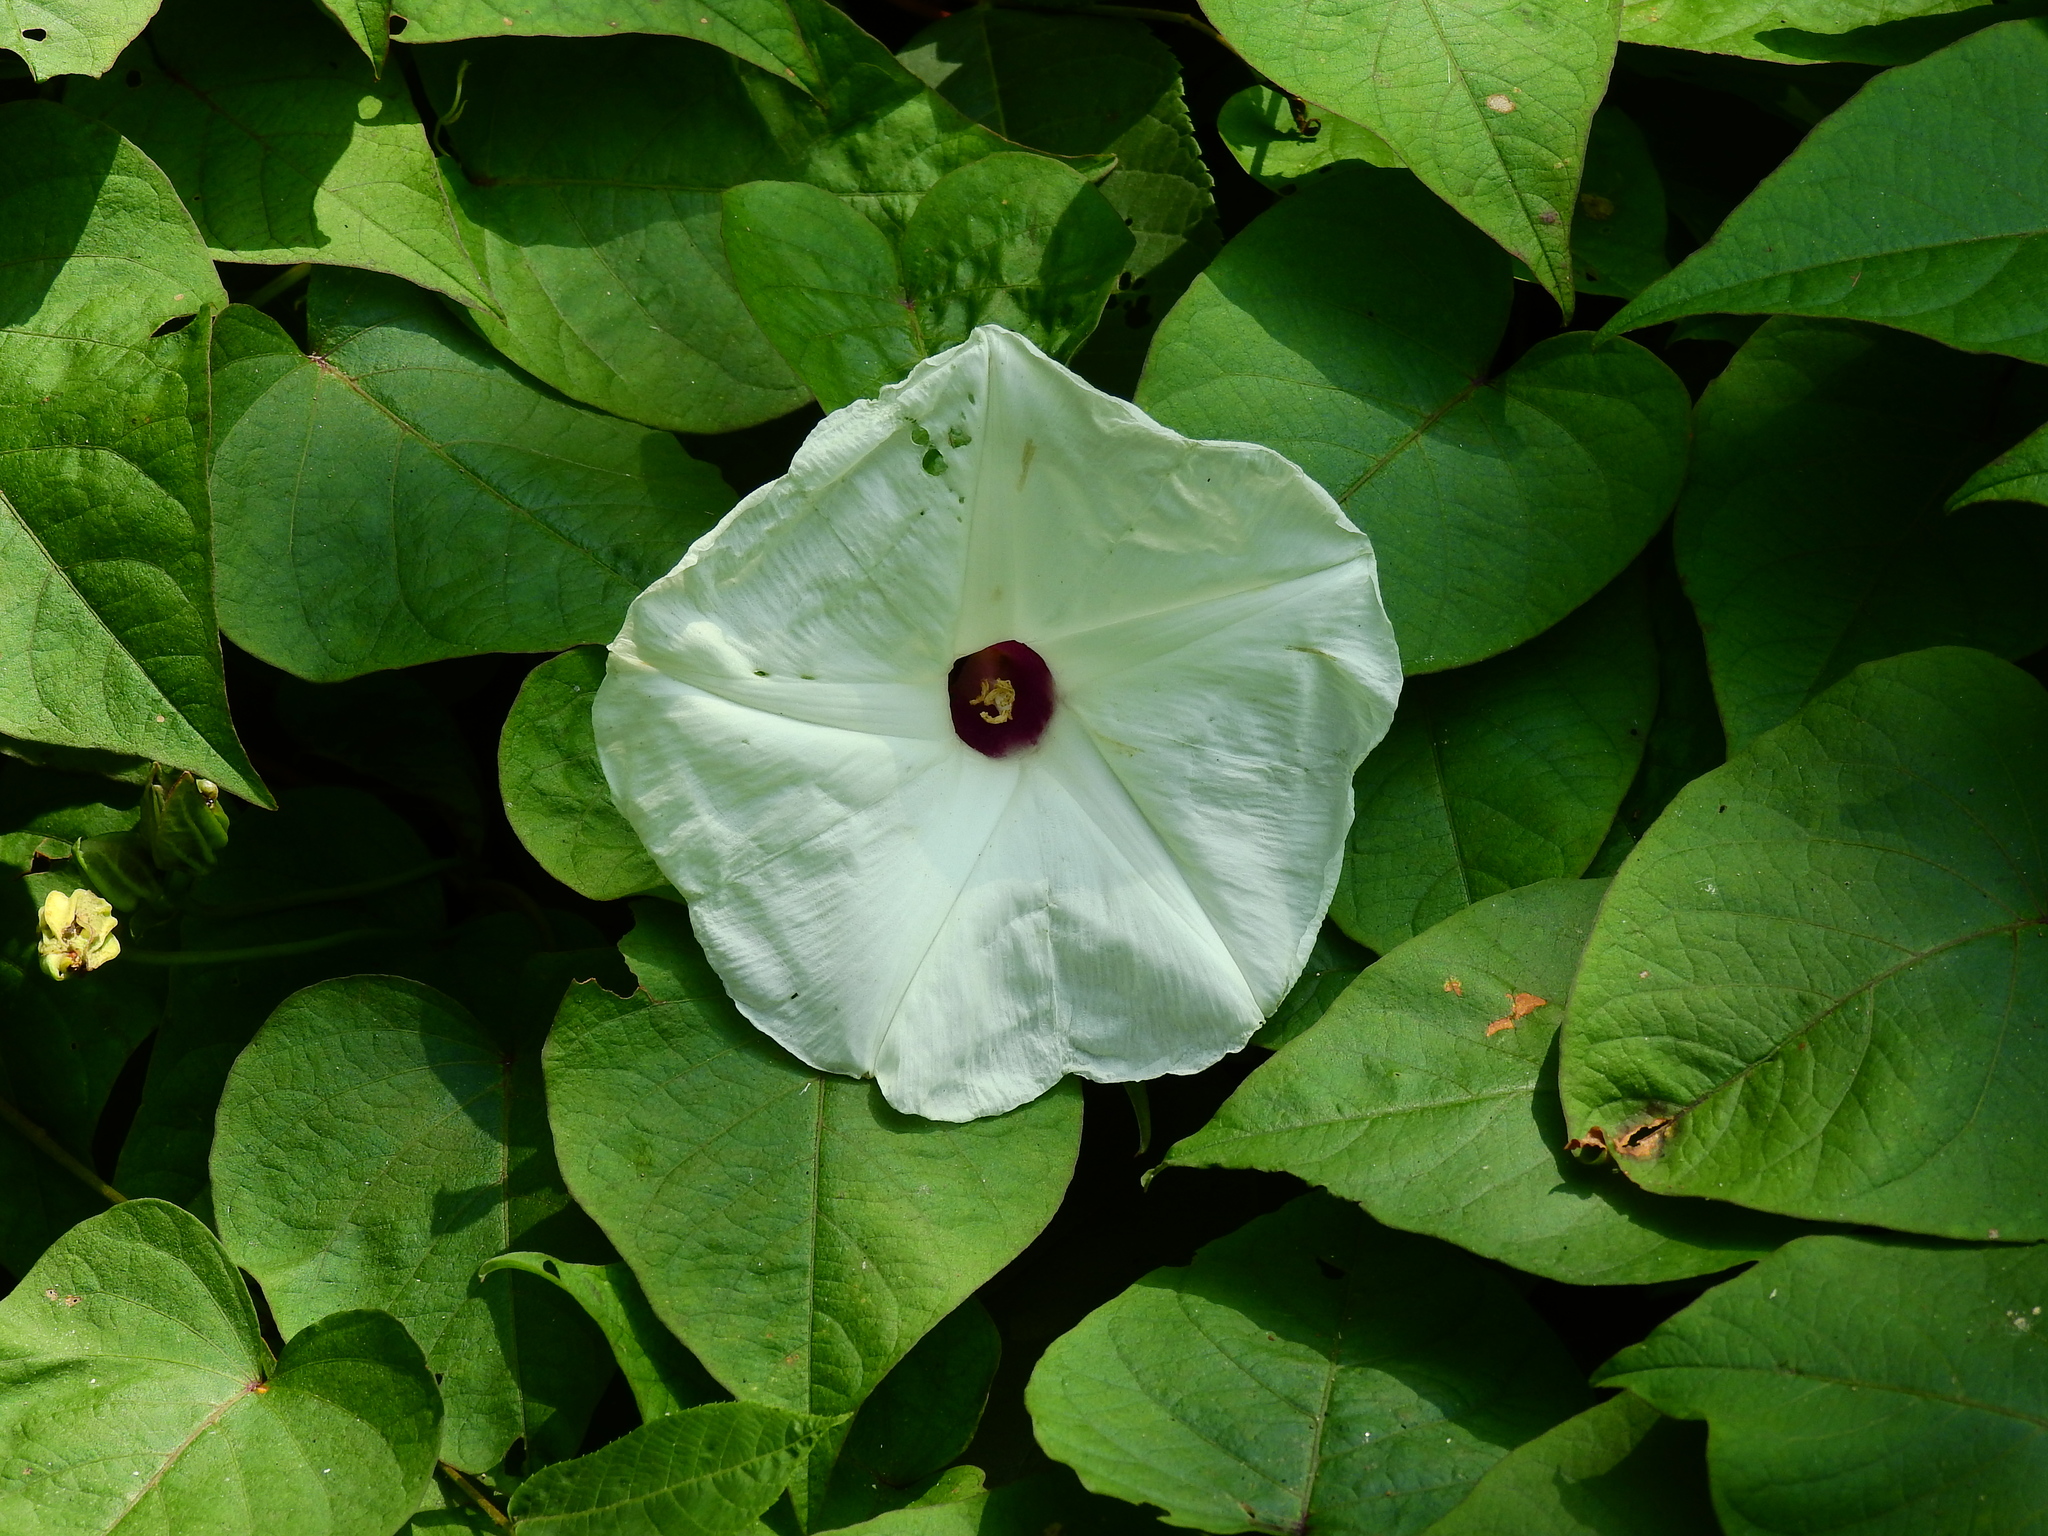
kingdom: Plantae
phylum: Tracheophyta
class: Magnoliopsida
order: Solanales
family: Convolvulaceae
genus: Ipomoea
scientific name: Ipomoea pandurata
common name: Man-of-the-earth
